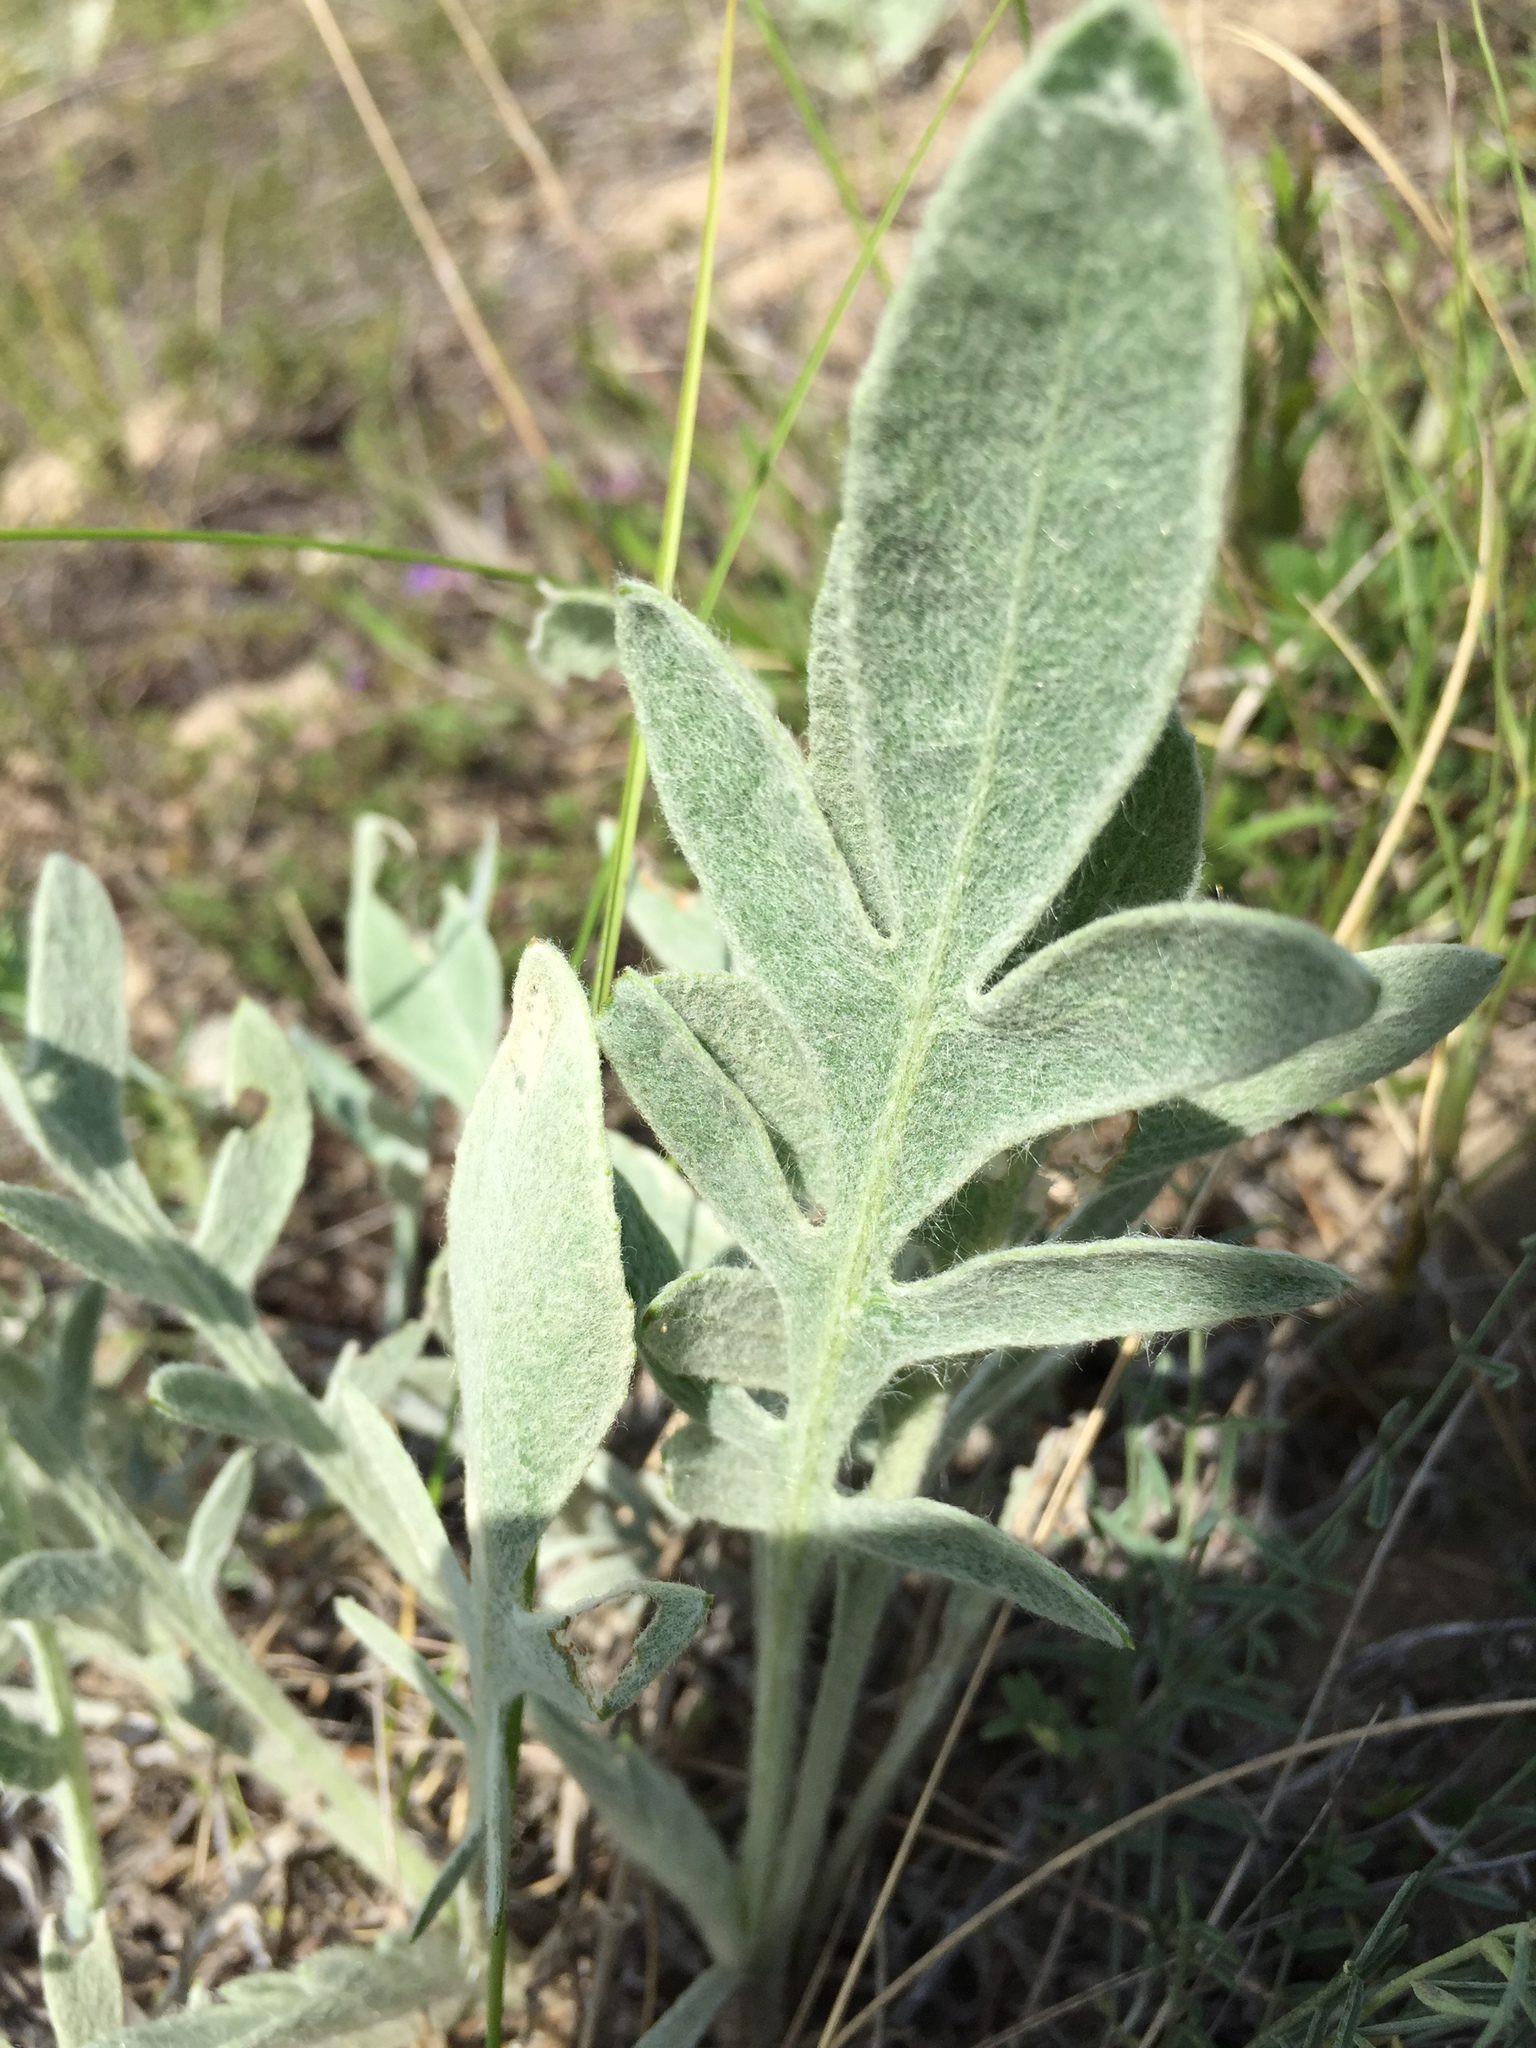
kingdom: Plantae
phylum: Tracheophyta
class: Magnoliopsida
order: Asterales
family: Asteraceae
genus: Psephellus
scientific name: Psephellus marschallianus
